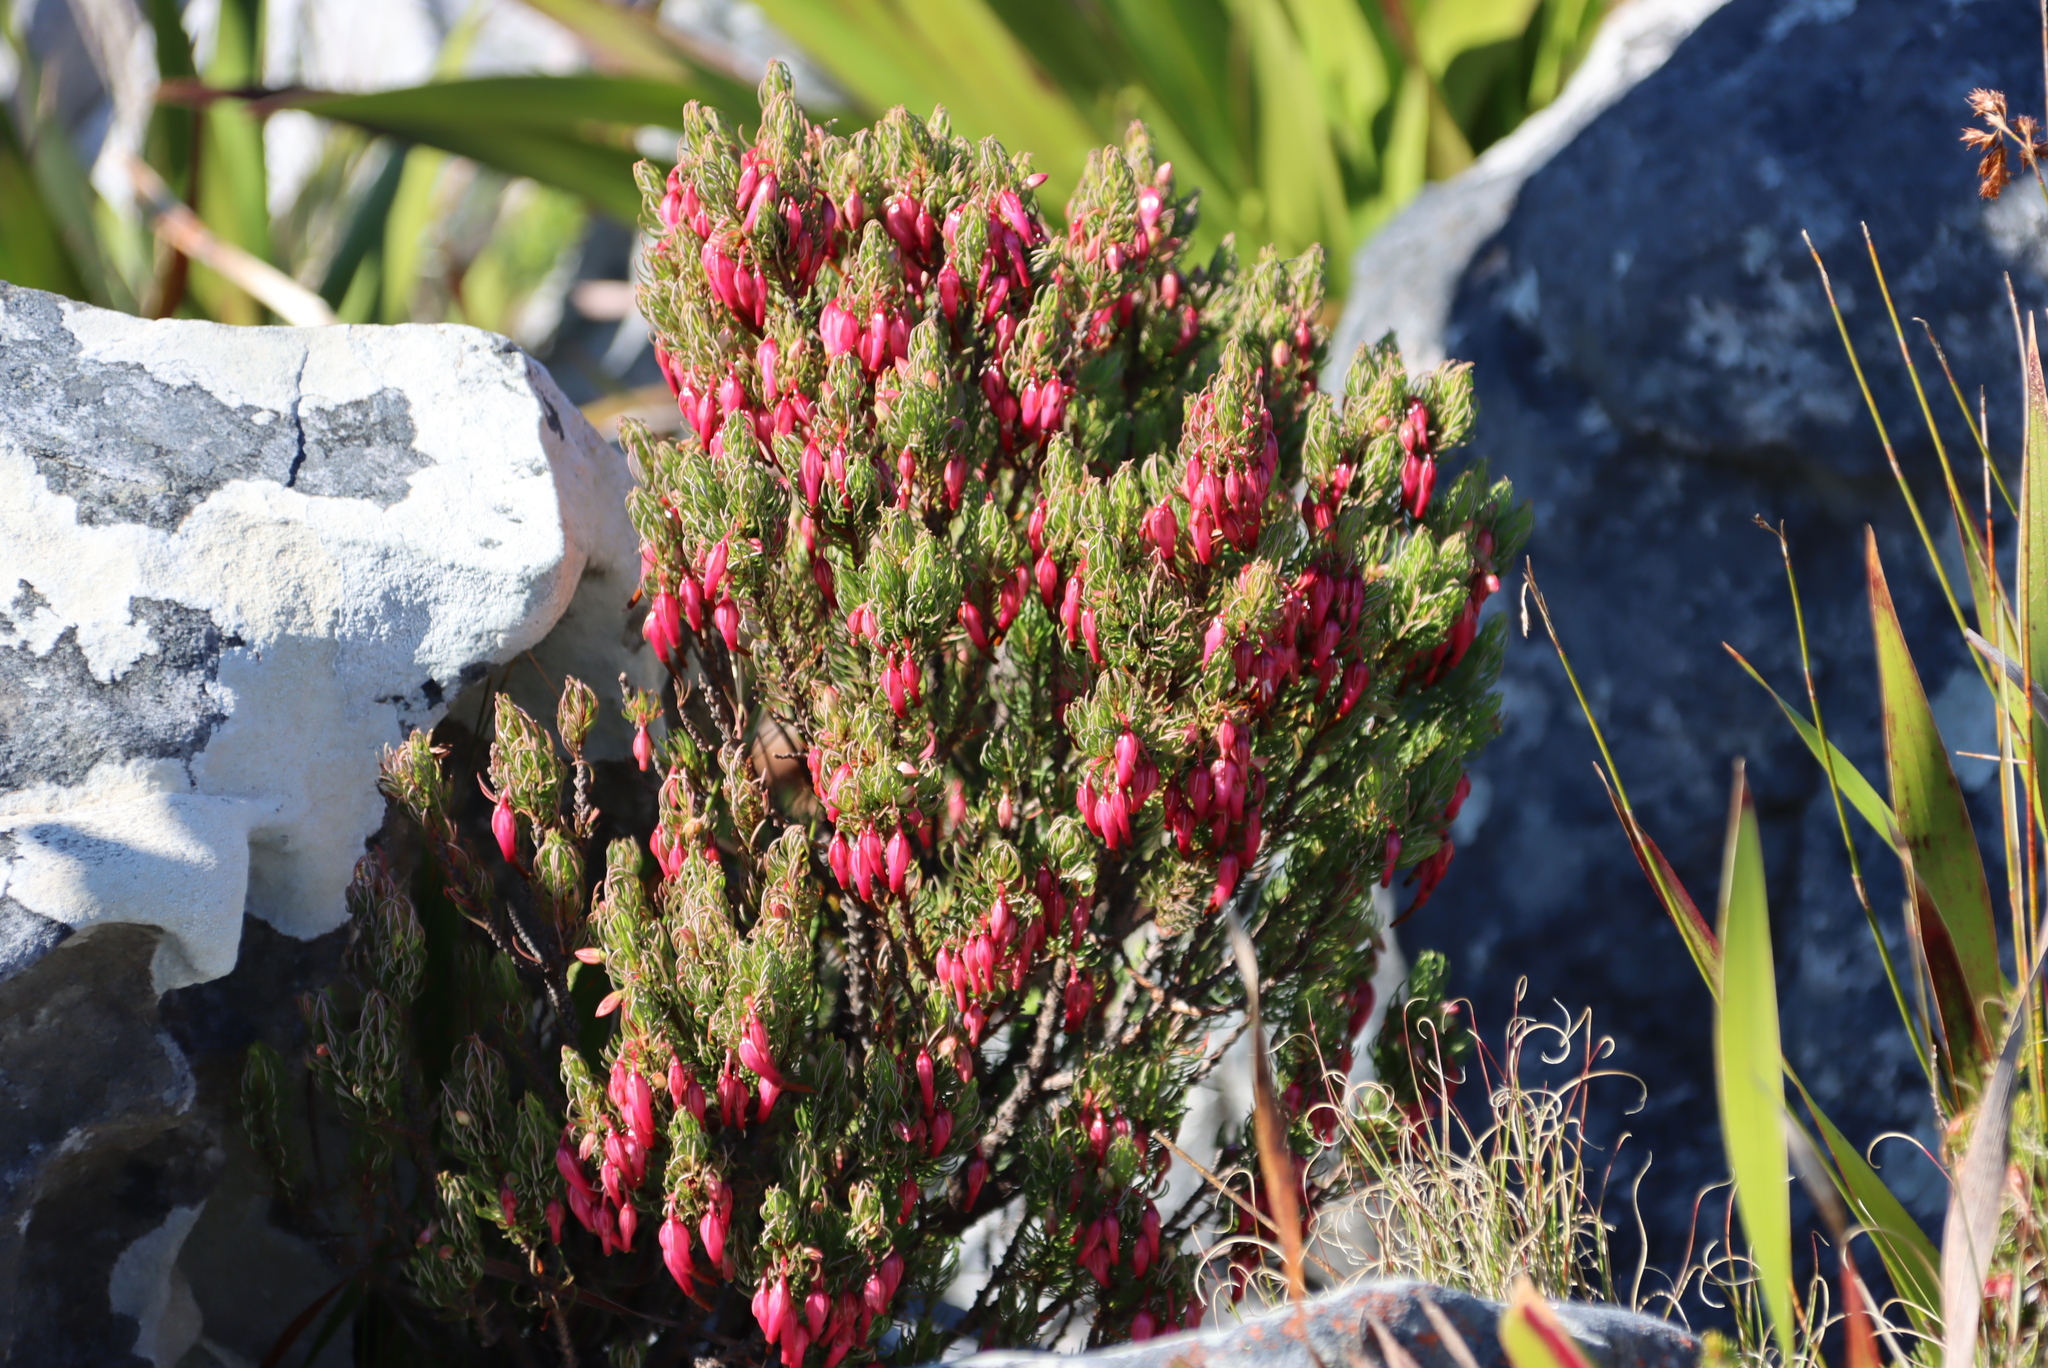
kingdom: Plantae
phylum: Tracheophyta
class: Magnoliopsida
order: Ericales
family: Ericaceae
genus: Erica
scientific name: Erica plukenetii
